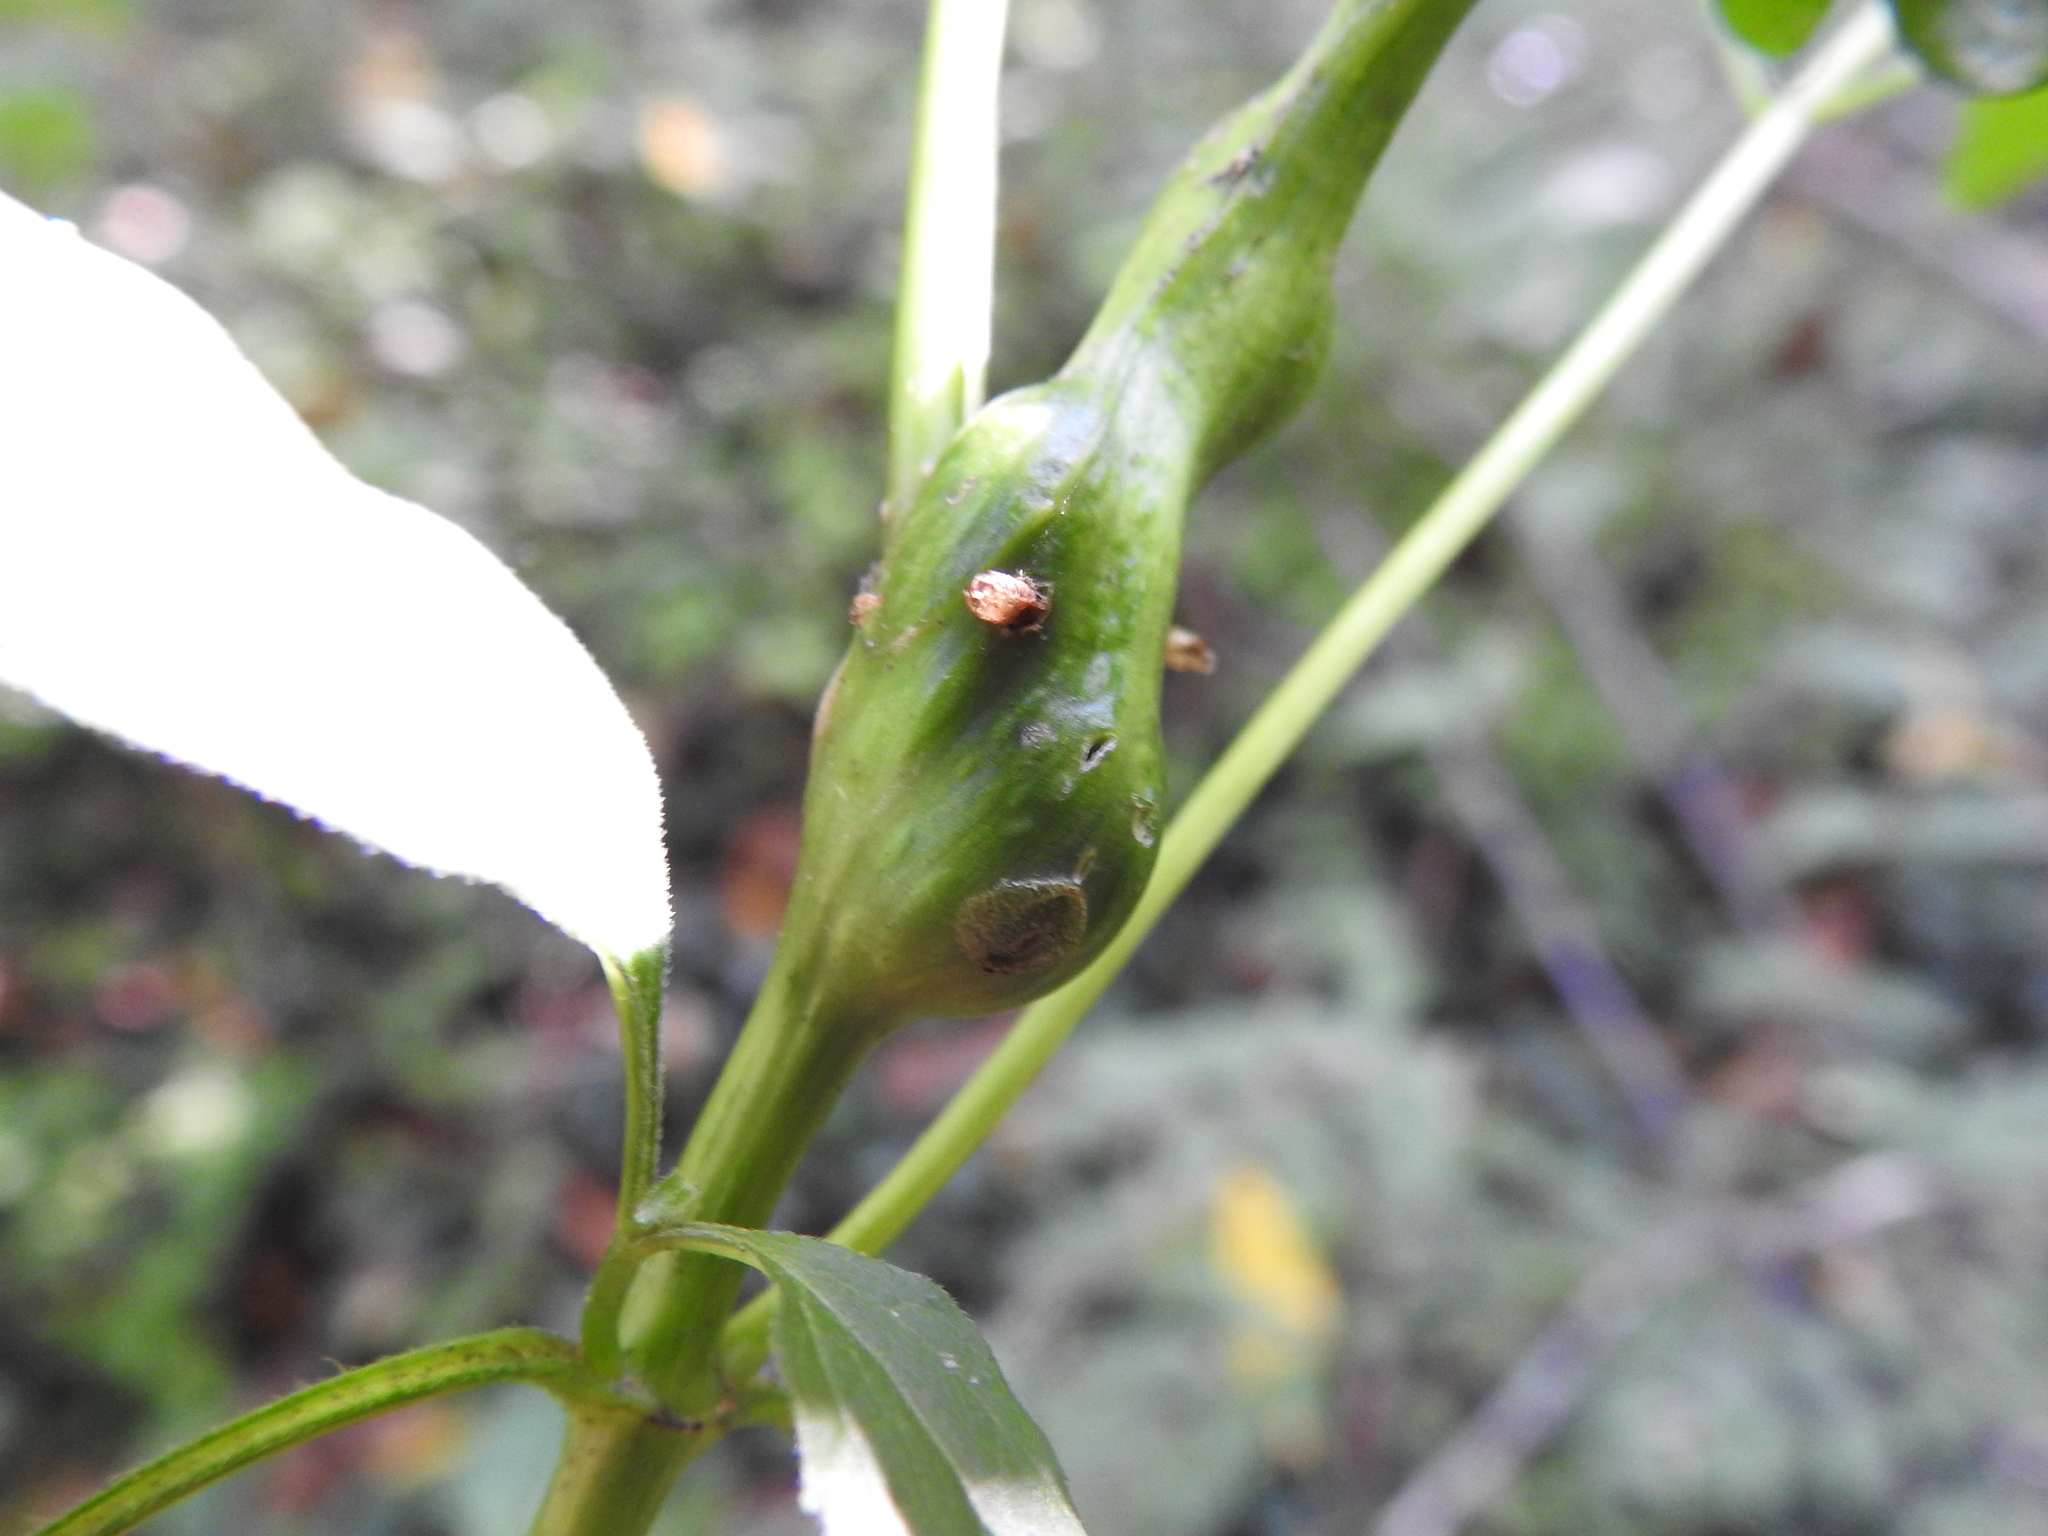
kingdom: Animalia
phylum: Arthropoda
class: Insecta
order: Diptera
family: Cecidomyiidae
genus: Asphondylia
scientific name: Asphondylia eupatorii
